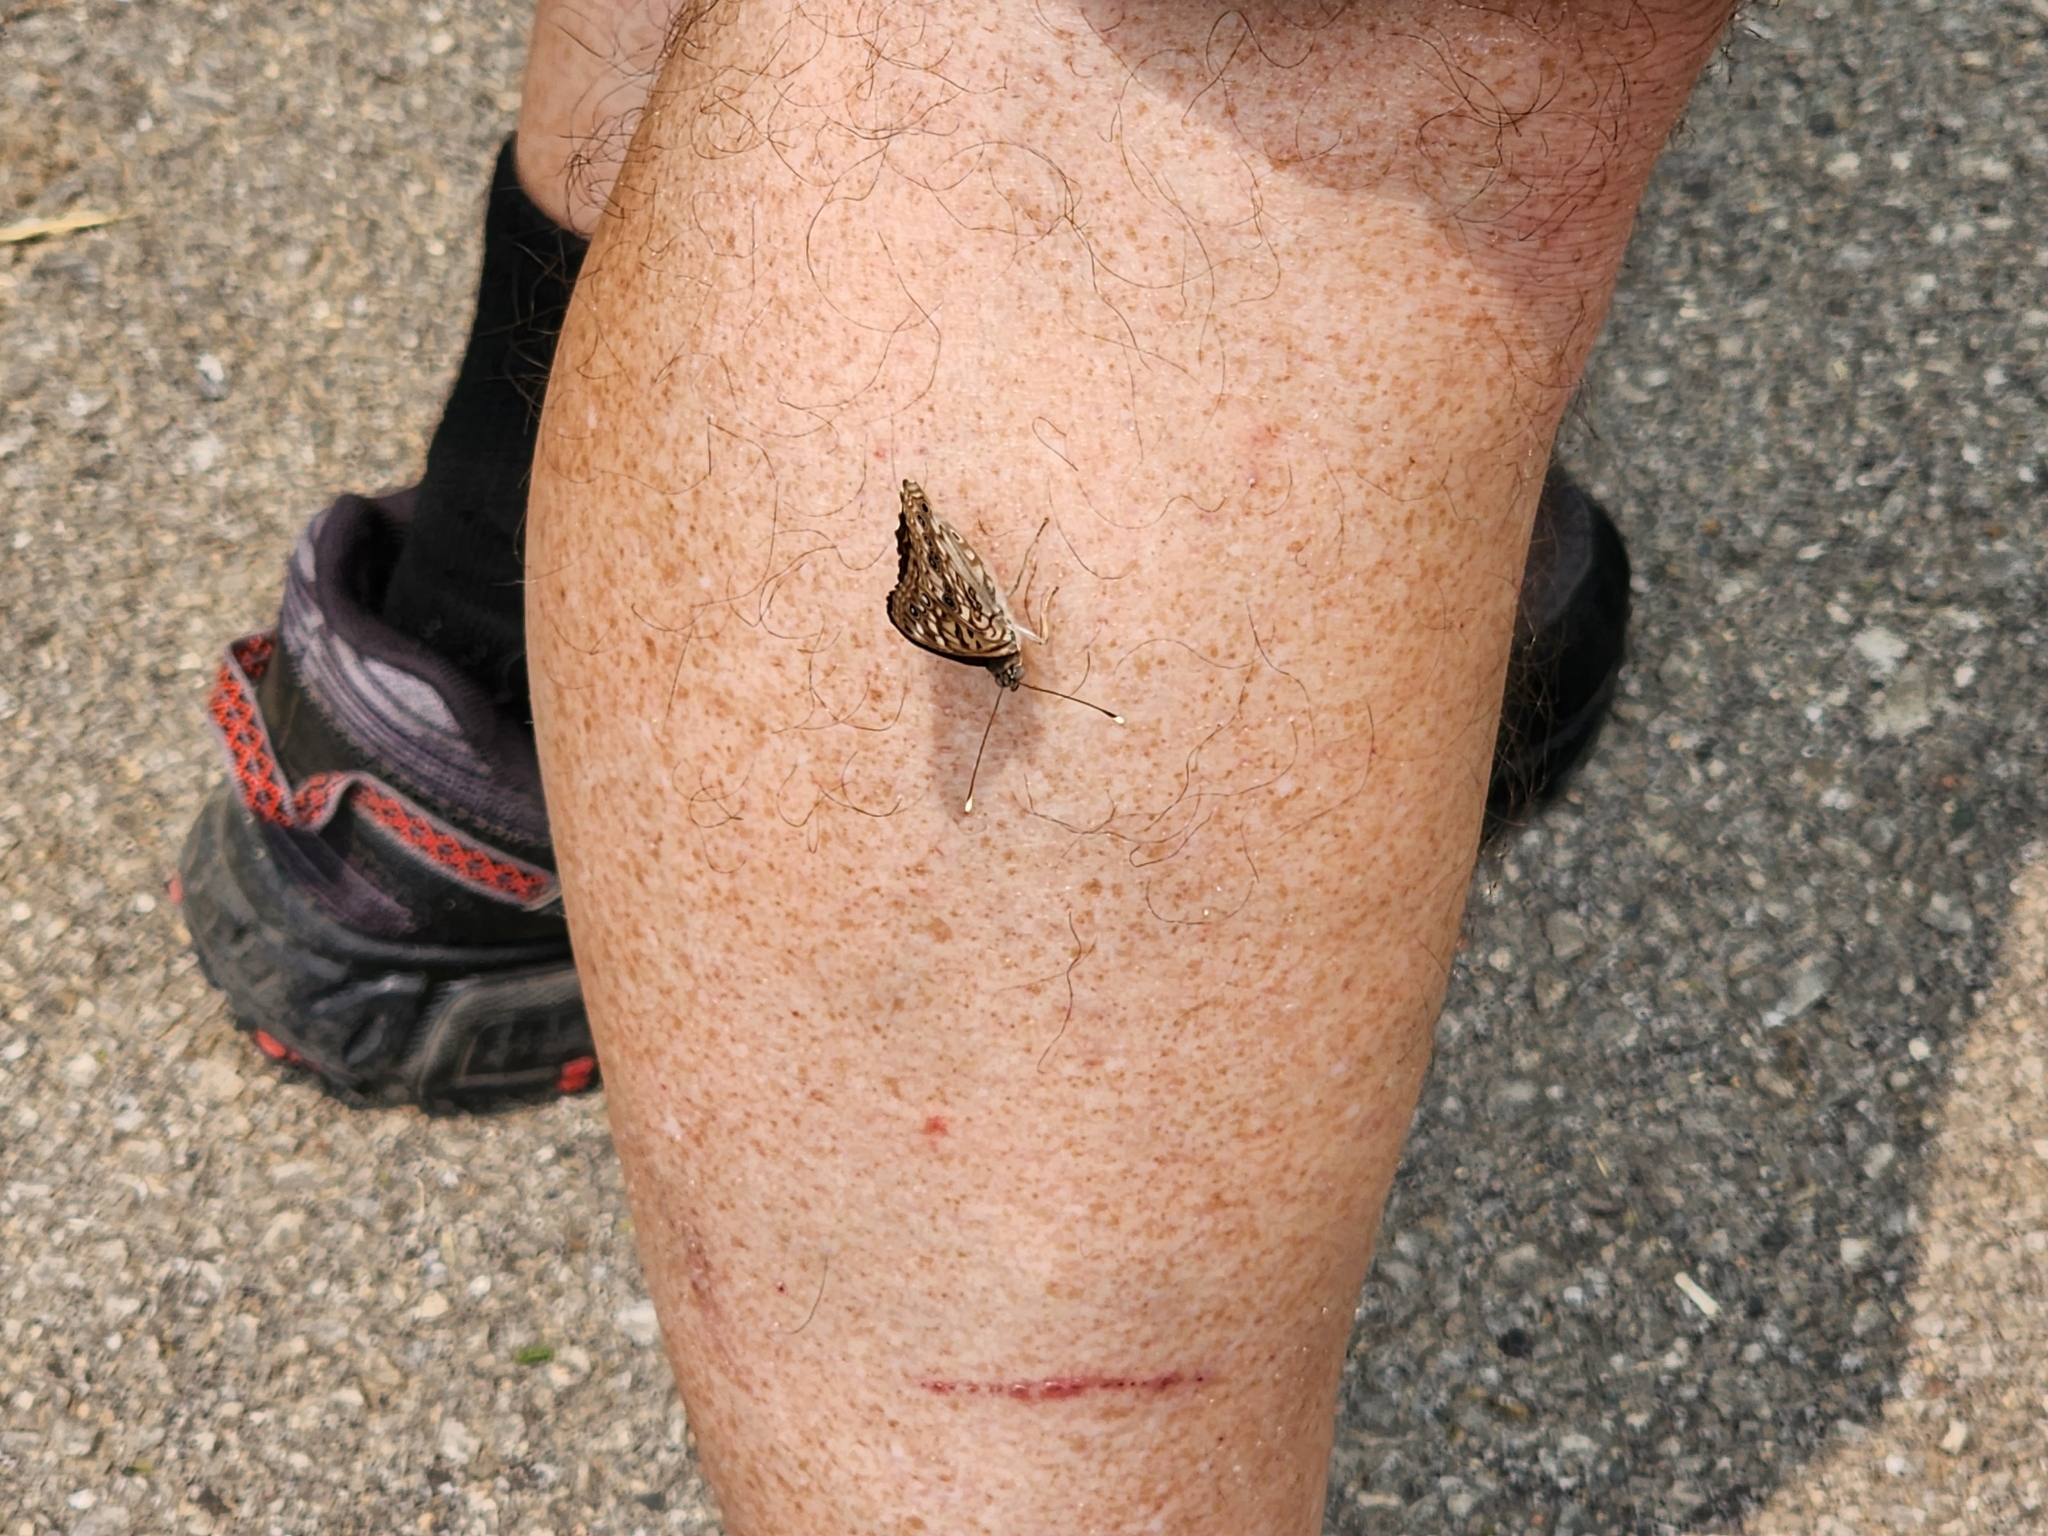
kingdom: Animalia
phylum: Arthropoda
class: Insecta
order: Lepidoptera
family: Nymphalidae
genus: Asterocampa
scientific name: Asterocampa celtis
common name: Hackberry emperor
